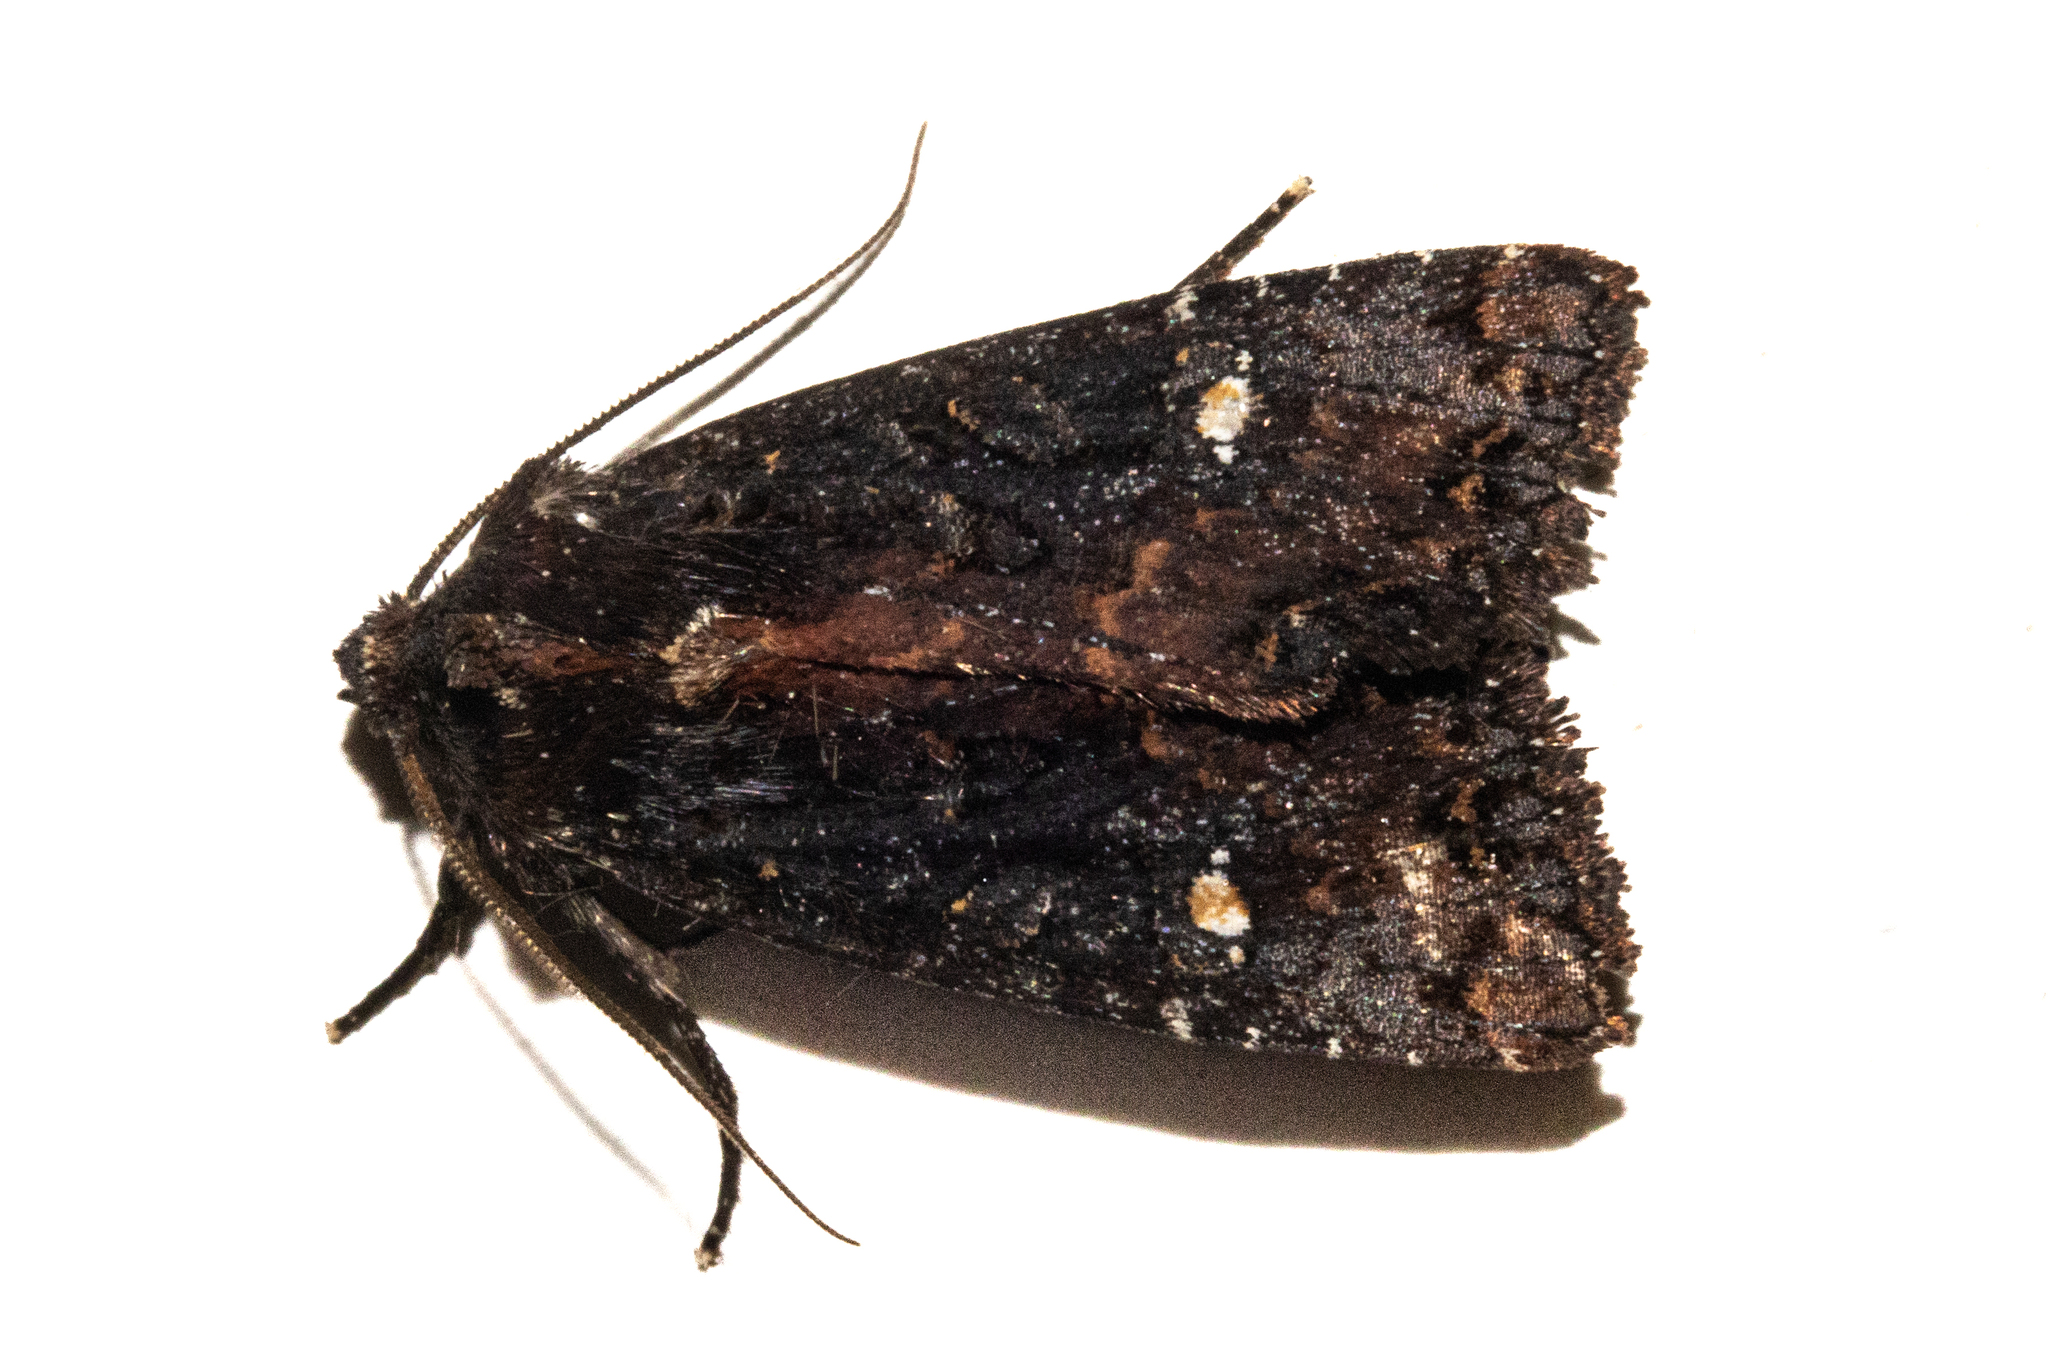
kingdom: Animalia
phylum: Arthropoda
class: Insecta
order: Lepidoptera
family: Noctuidae
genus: Meterana
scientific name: Meterana vitiosa
